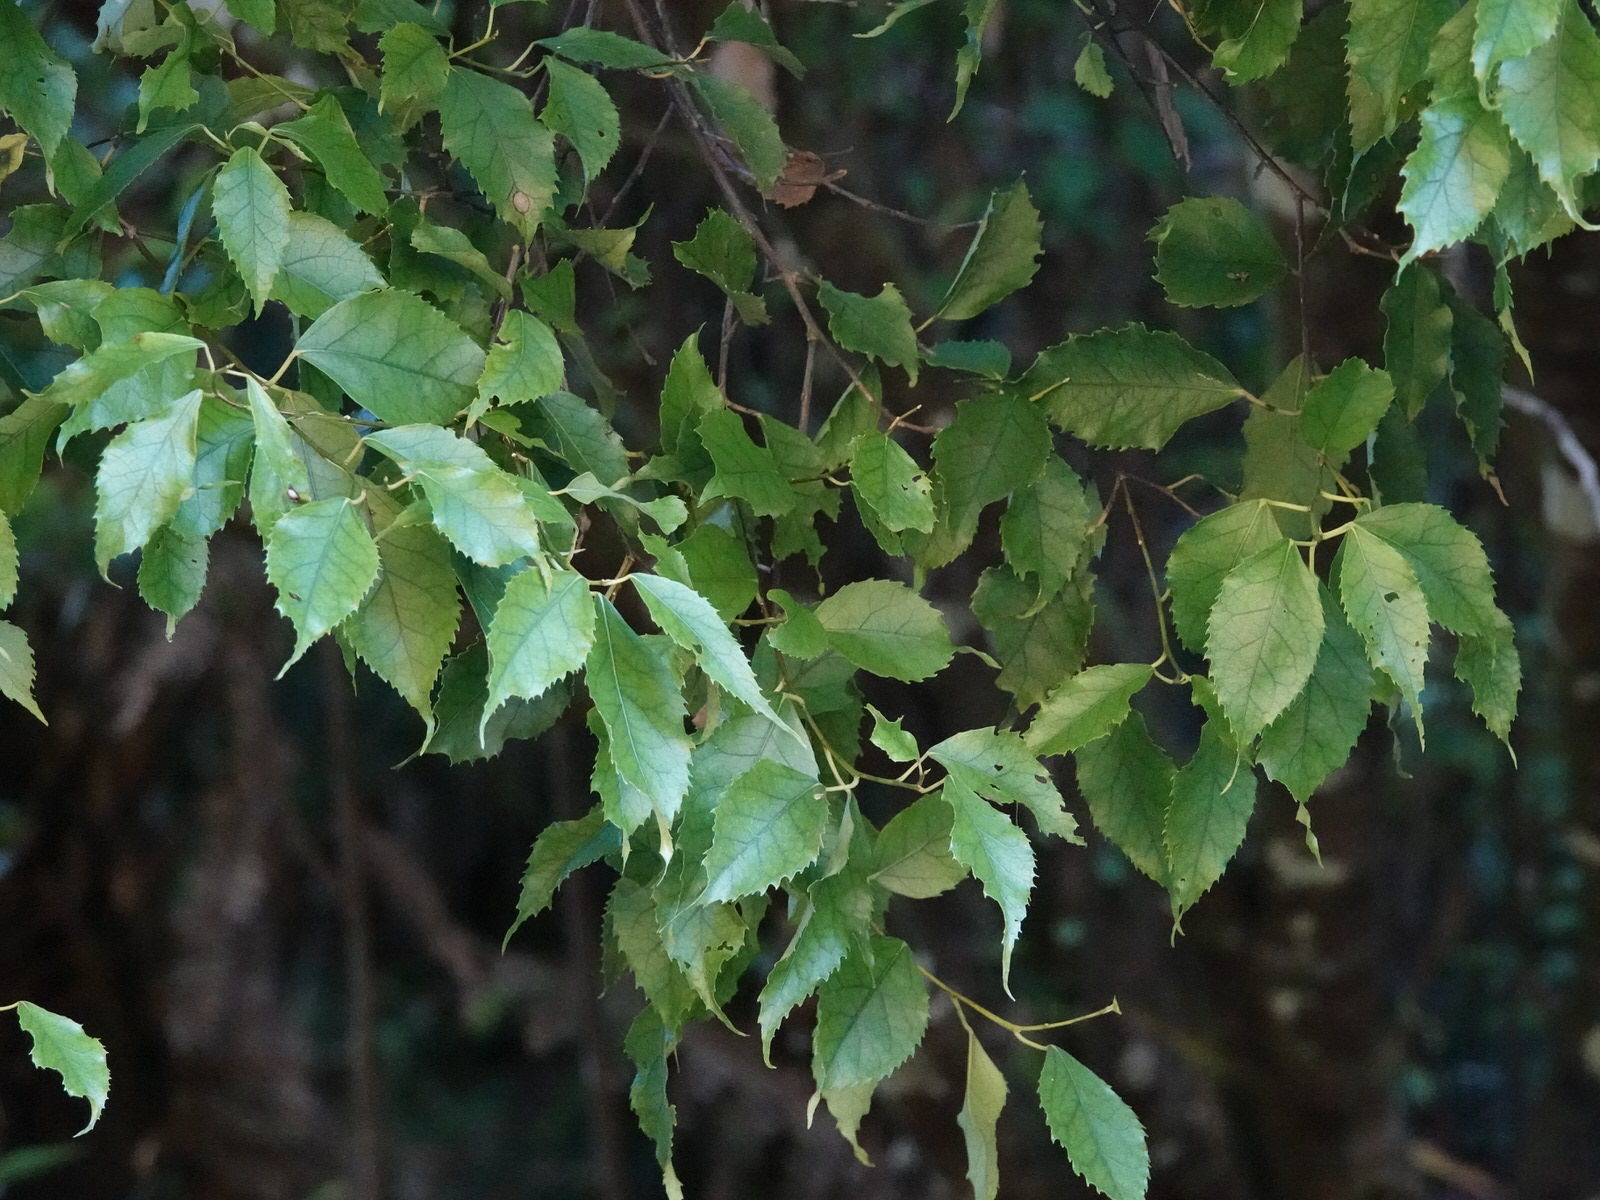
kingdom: Plantae
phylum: Tracheophyta
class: Magnoliopsida
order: Malvales
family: Malvaceae
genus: Hoheria
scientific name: Hoheria populnea
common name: Lacebark
